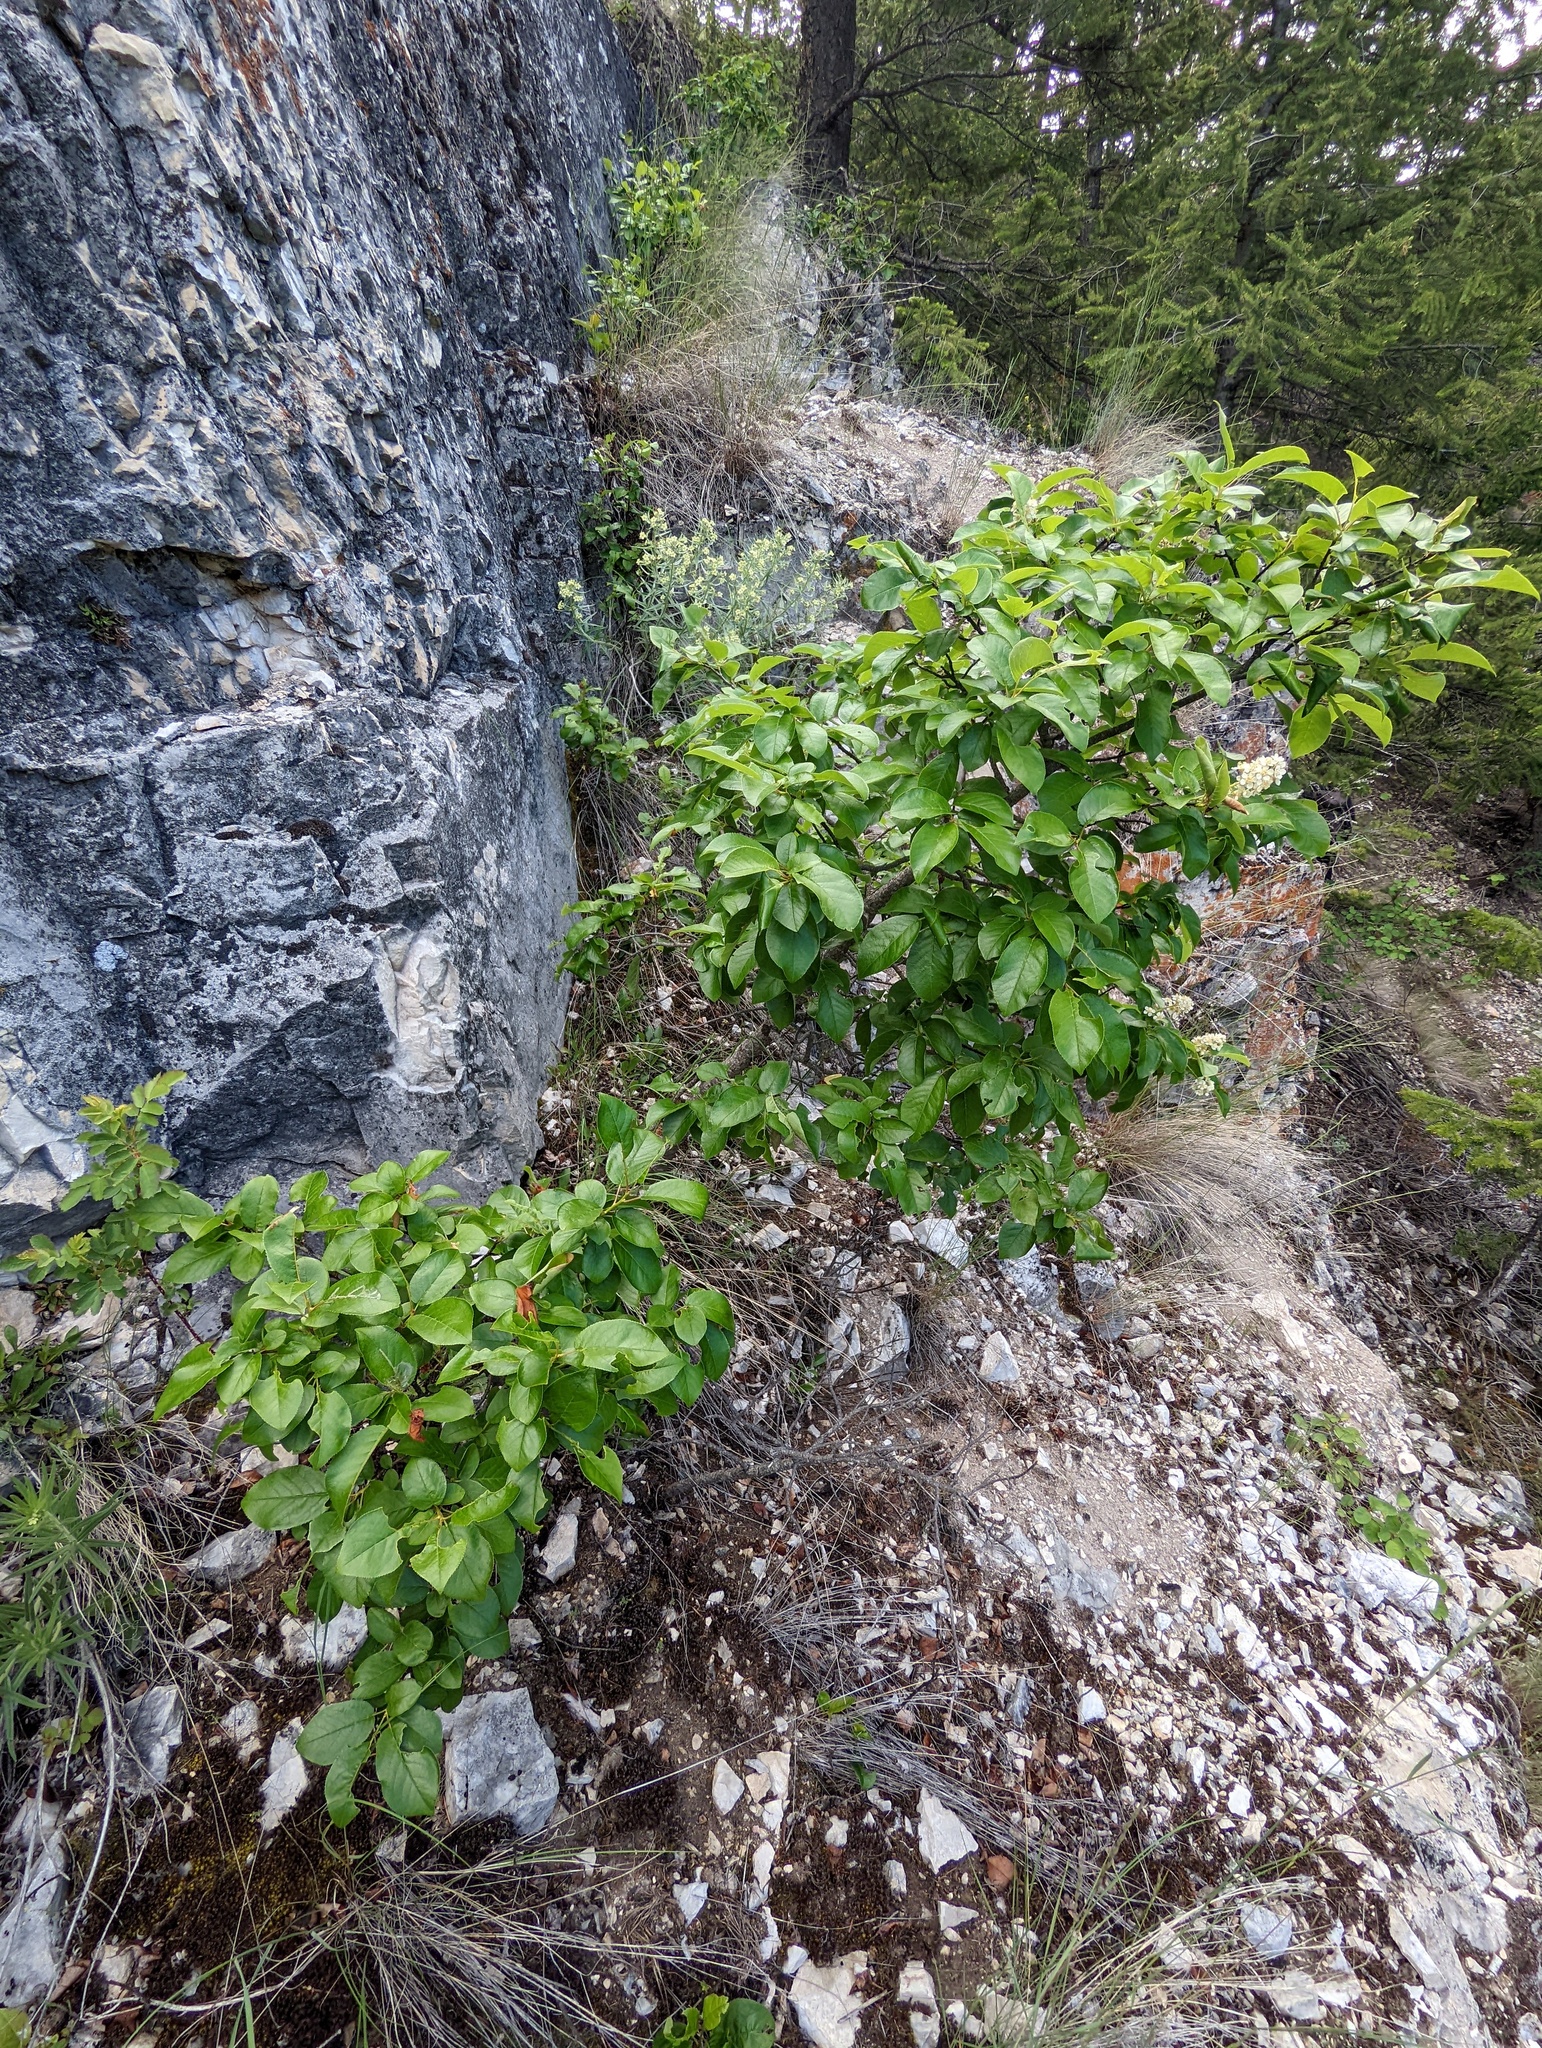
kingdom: Plantae
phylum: Tracheophyta
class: Magnoliopsida
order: Rosales
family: Rosaceae
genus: Prunus
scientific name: Prunus virginiana
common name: Chokecherry
